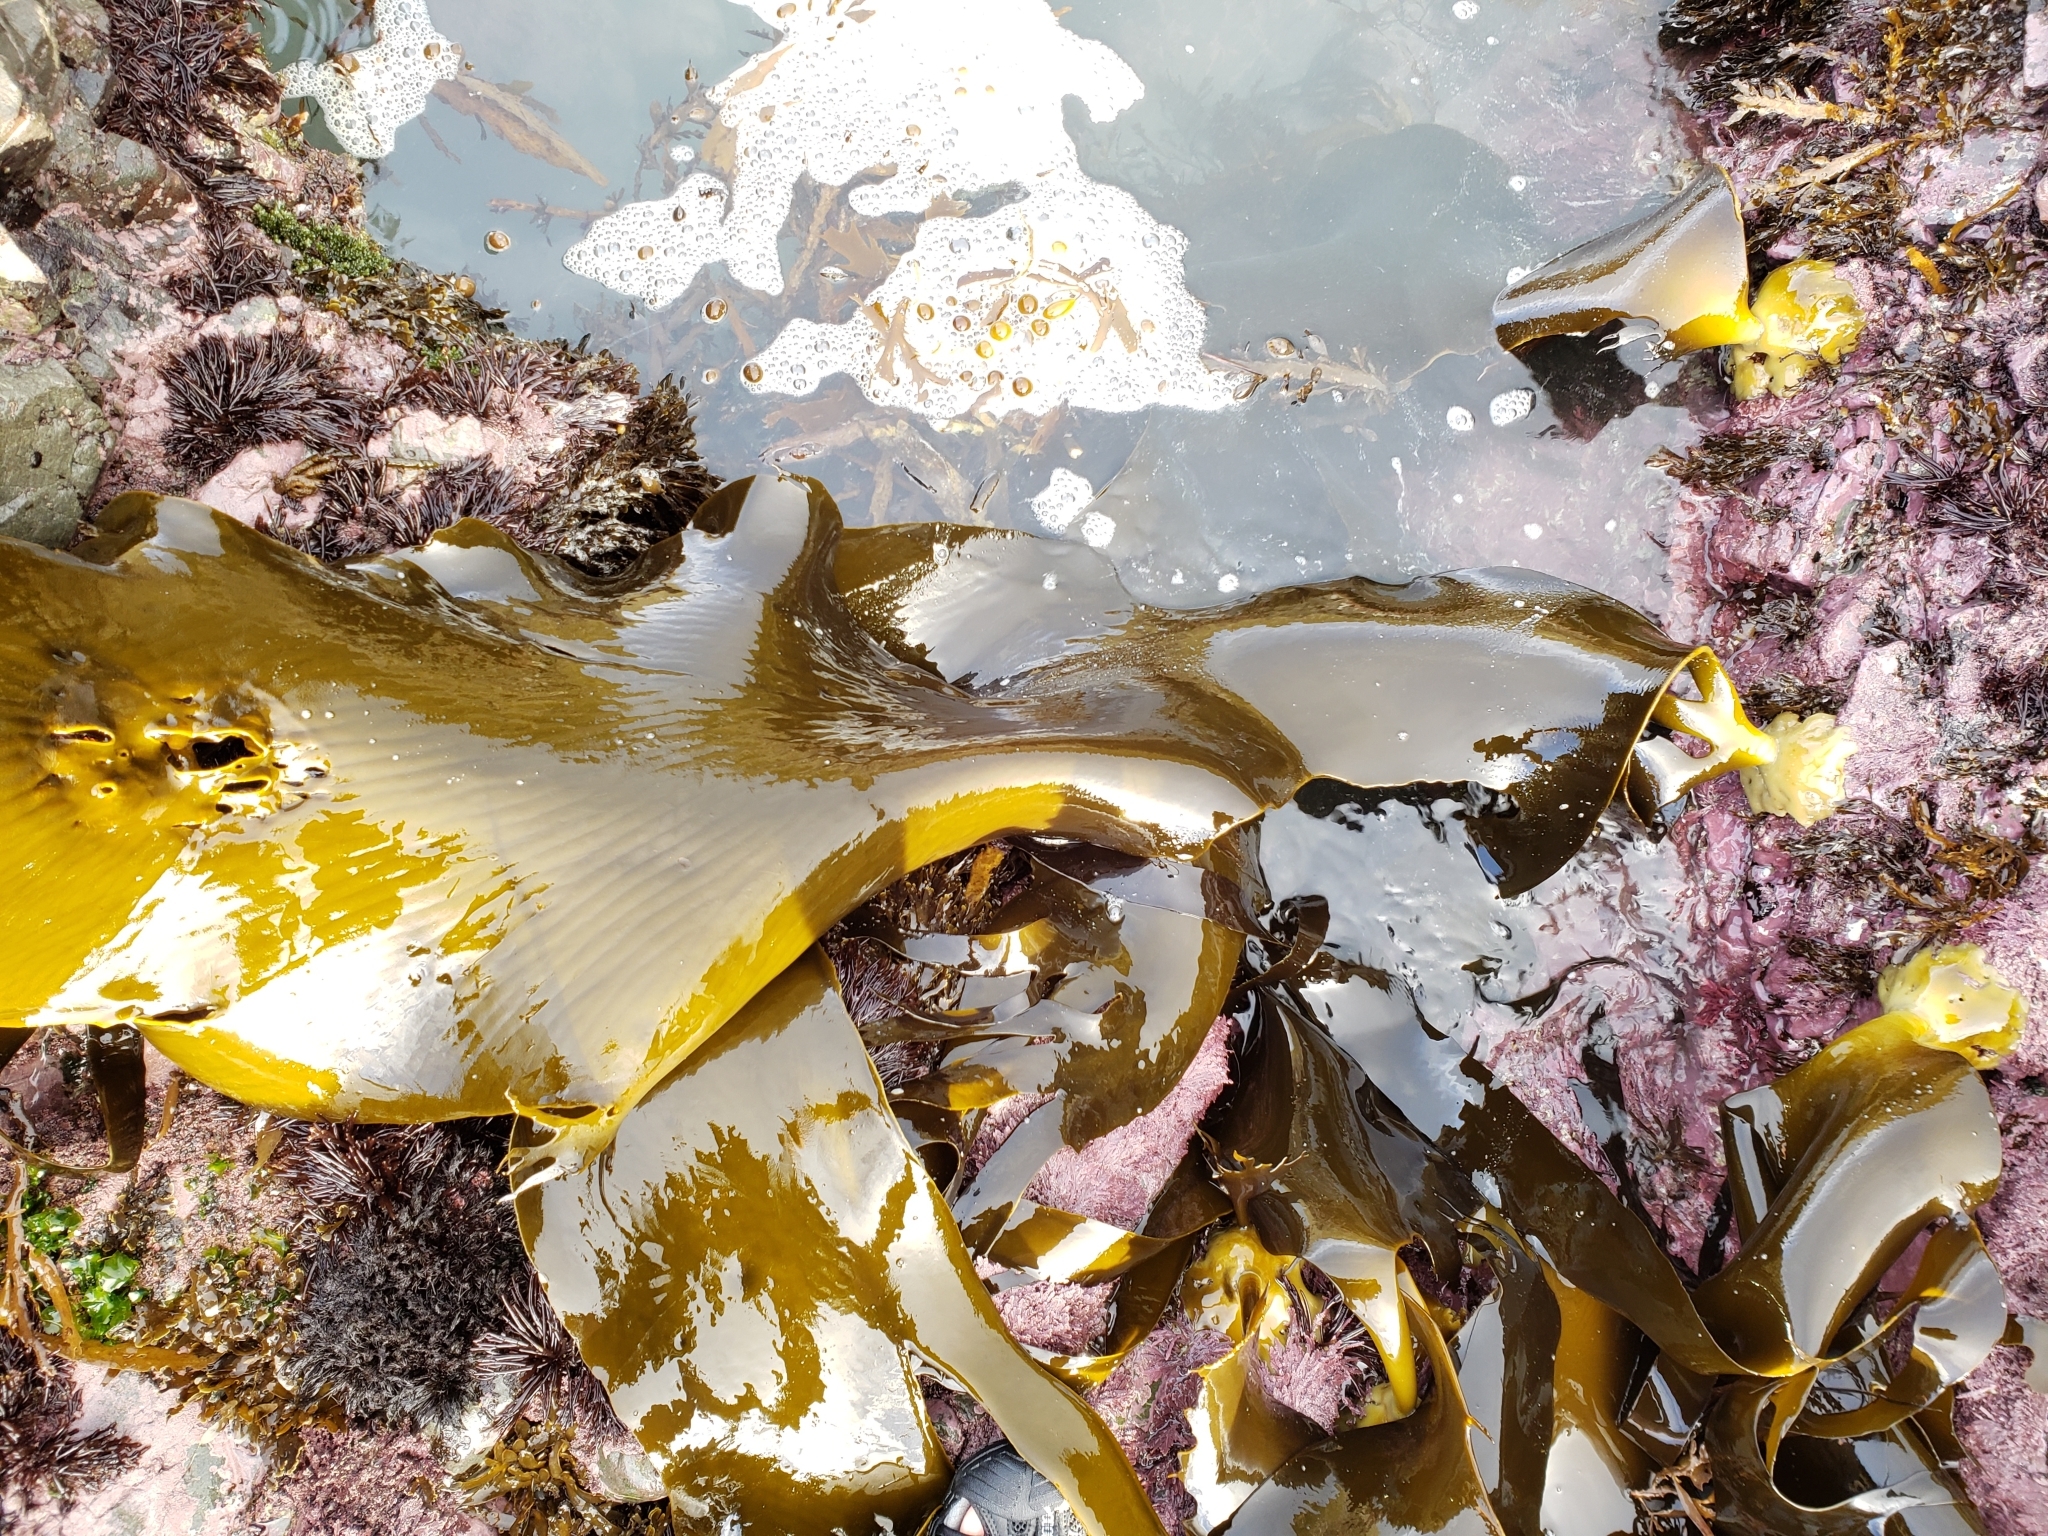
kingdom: Chromista
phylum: Ochrophyta
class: Phaeophyceae
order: Fucales
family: Durvillaeaceae
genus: Durvillaea
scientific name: Durvillaea antarctica
